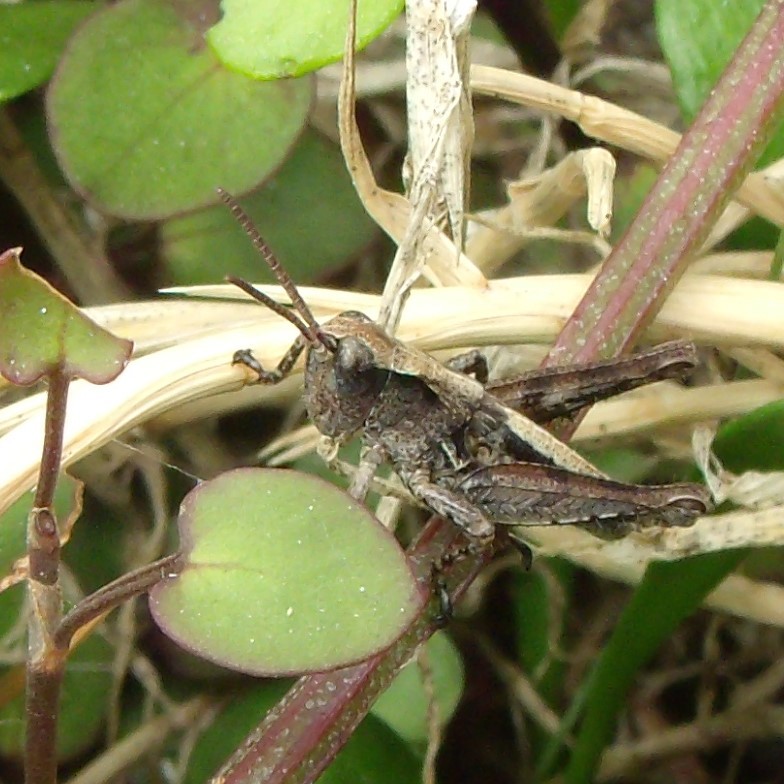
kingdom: Animalia
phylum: Arthropoda
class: Insecta
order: Orthoptera
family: Acrididae
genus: Phaulacridium
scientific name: Phaulacridium marginale
